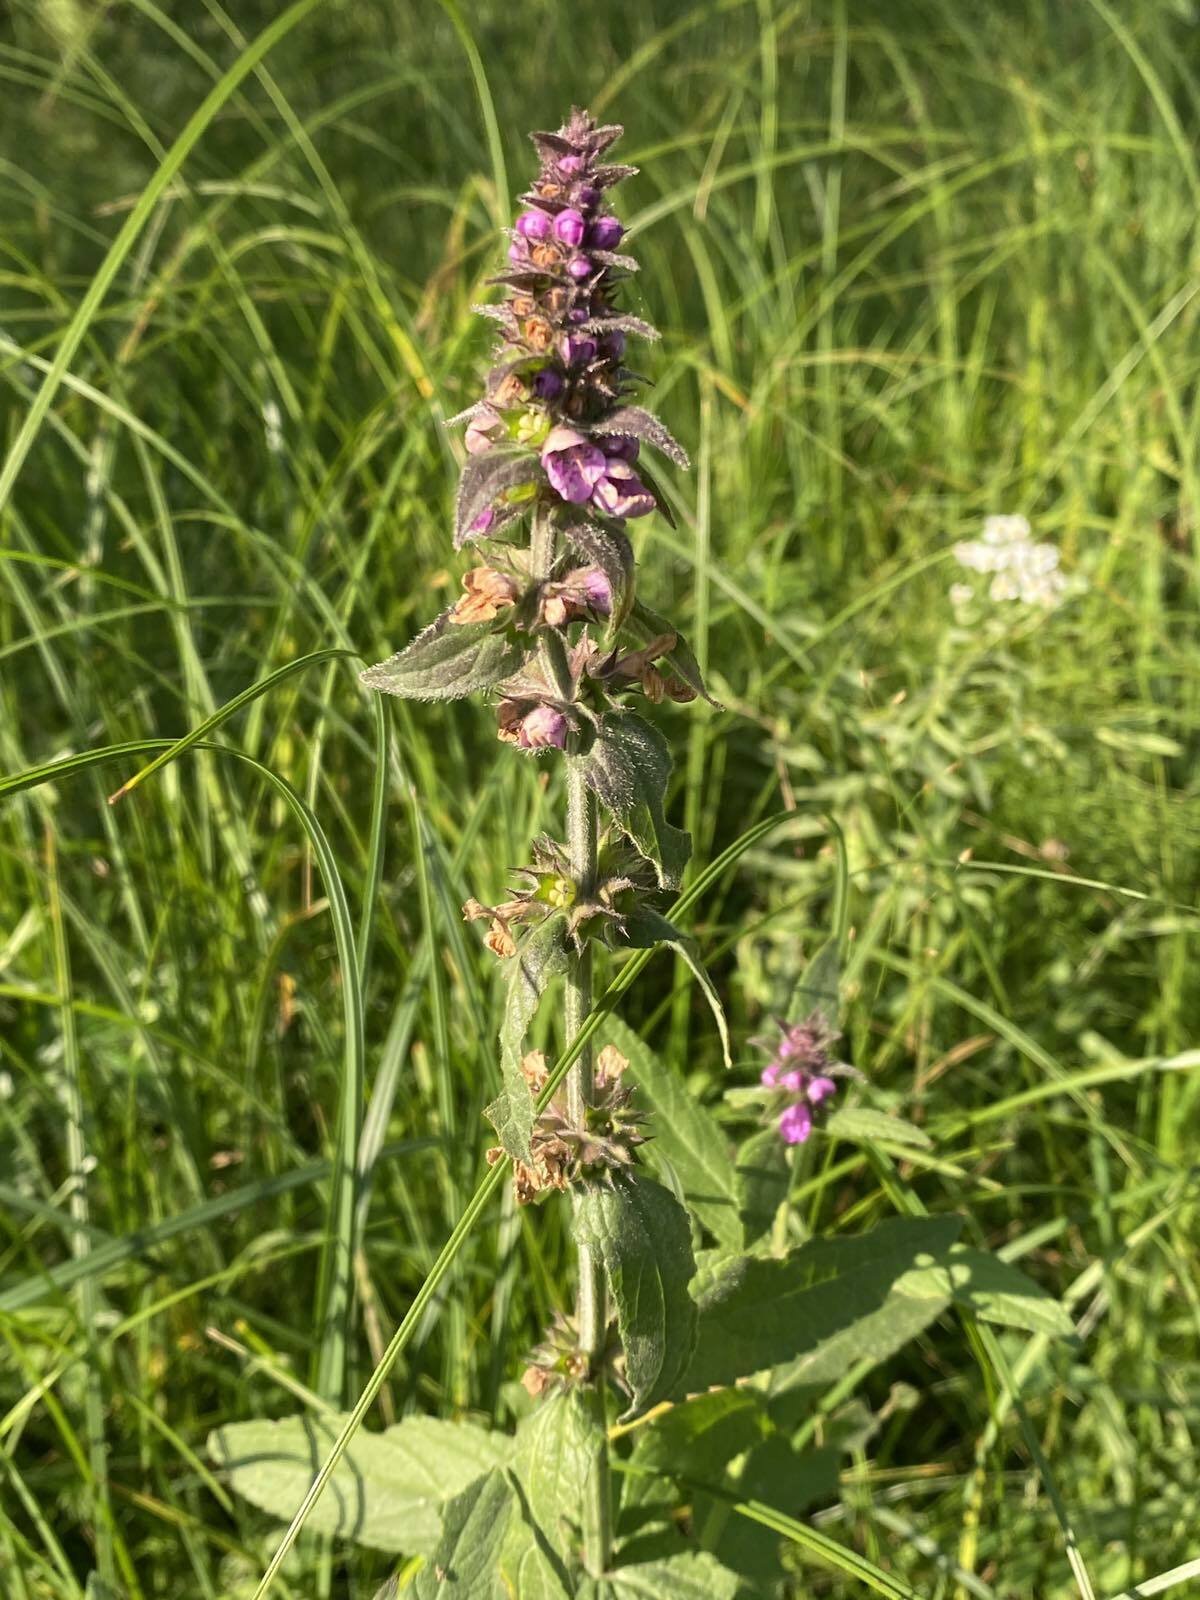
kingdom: Plantae
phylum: Tracheophyta
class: Magnoliopsida
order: Lamiales
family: Lamiaceae
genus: Stachys
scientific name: Stachys palustris
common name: Marsh woundwort
